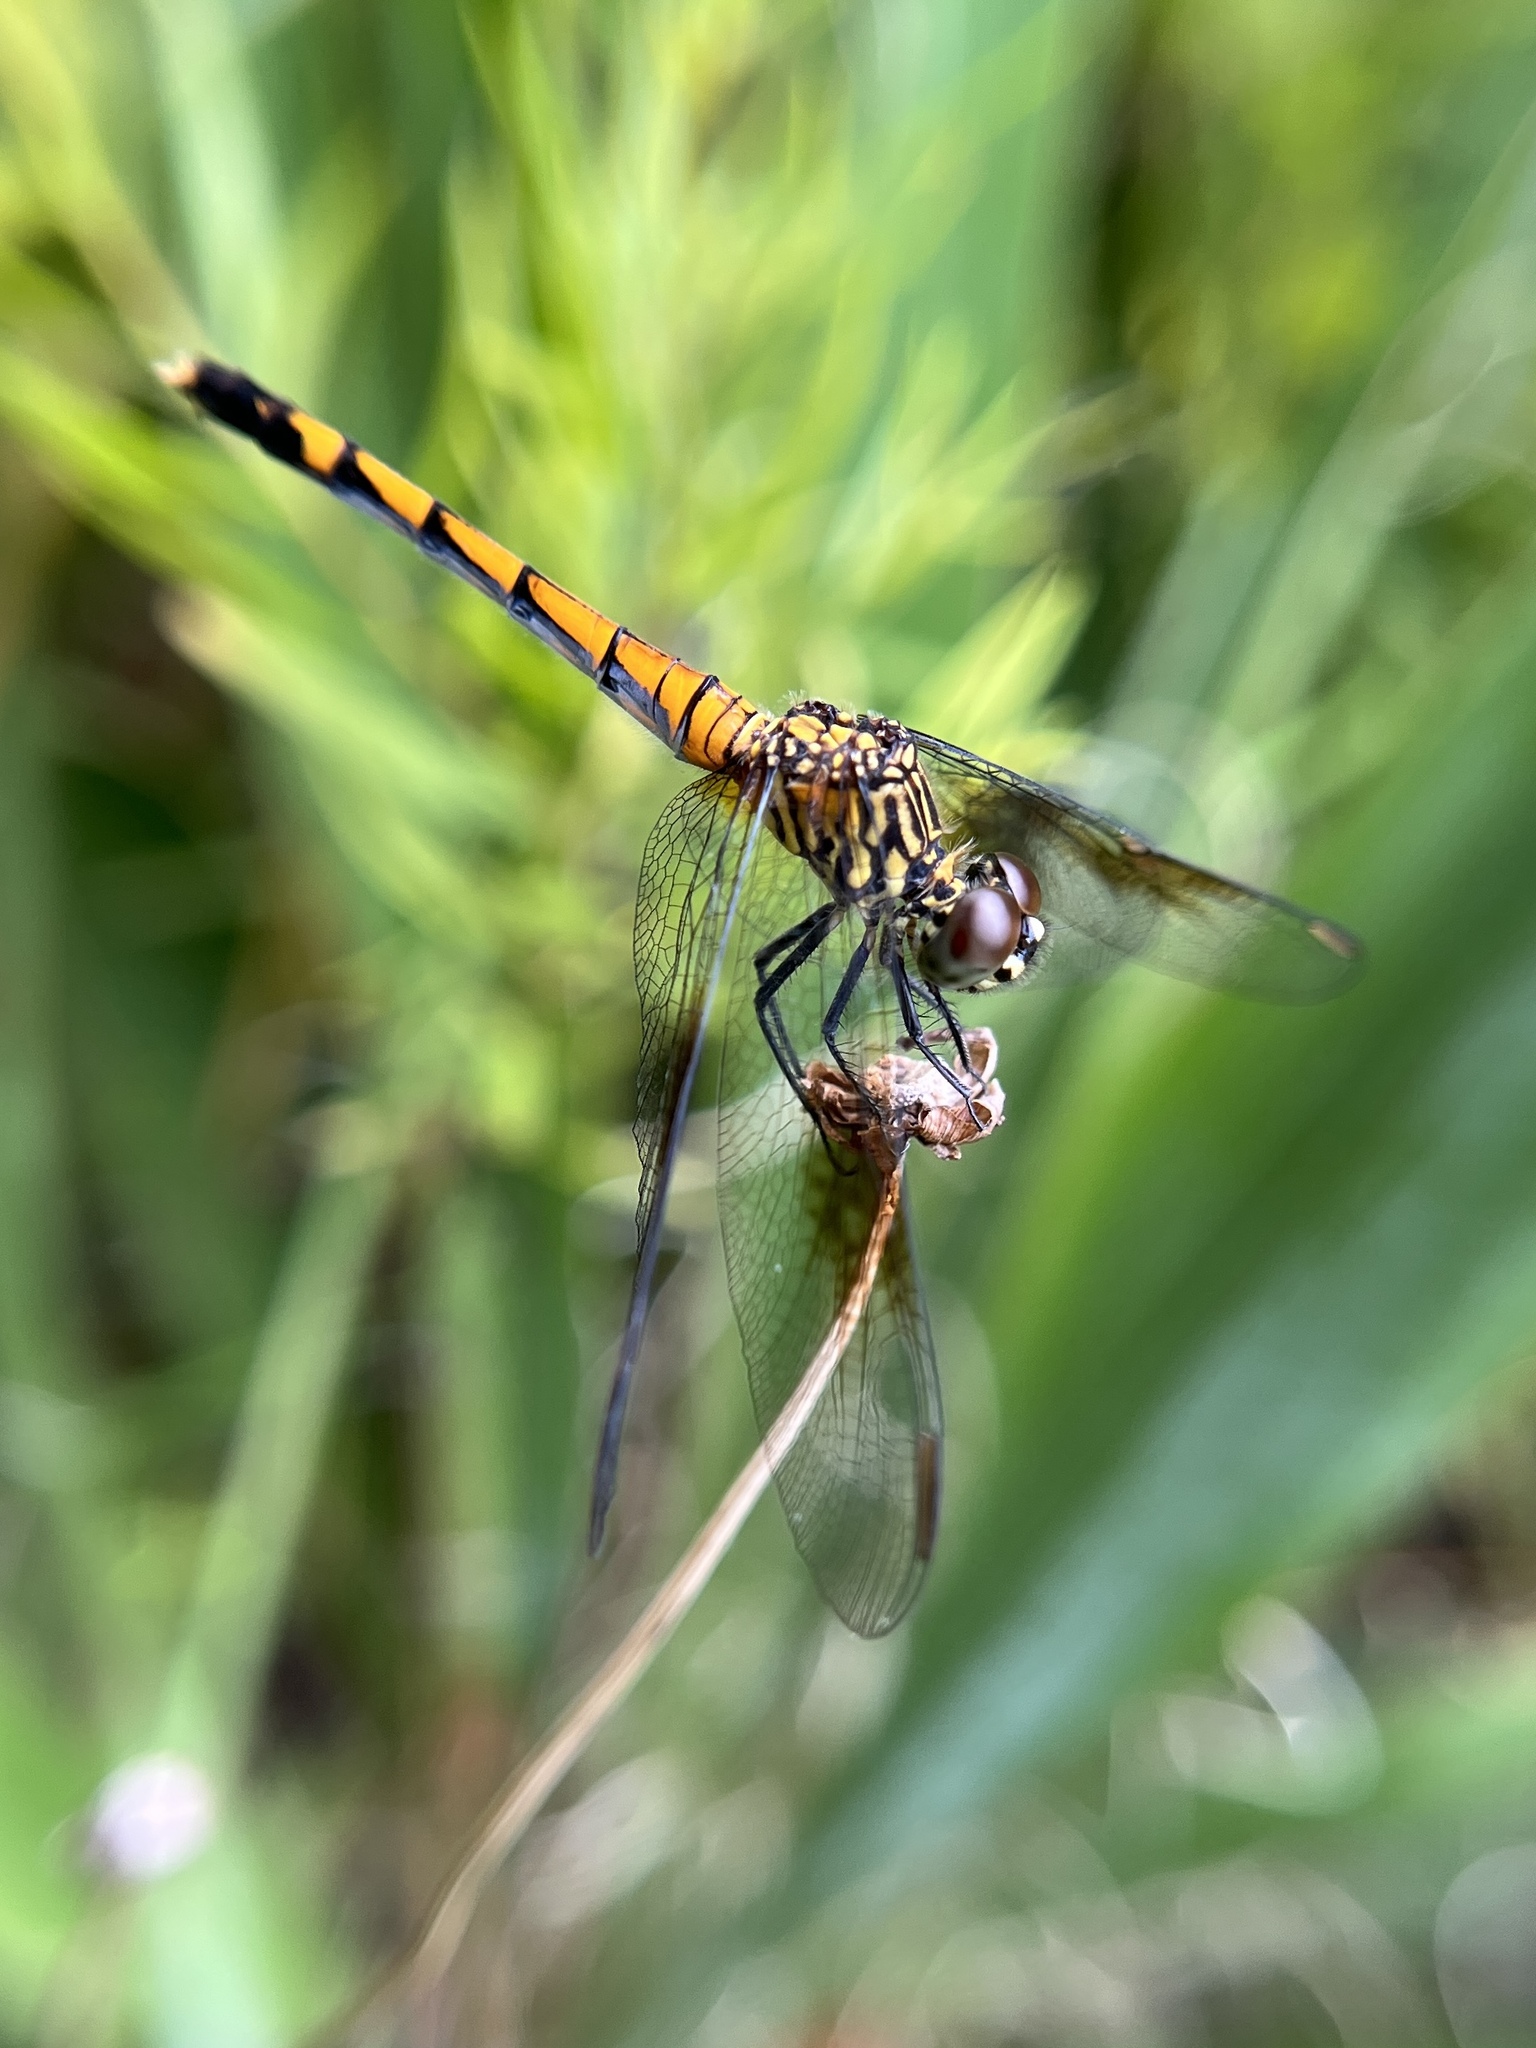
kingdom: Animalia
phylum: Arthropoda
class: Insecta
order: Odonata
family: Libellulidae
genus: Erythrodiplax
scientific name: Erythrodiplax berenice
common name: Seaside dragonlet
